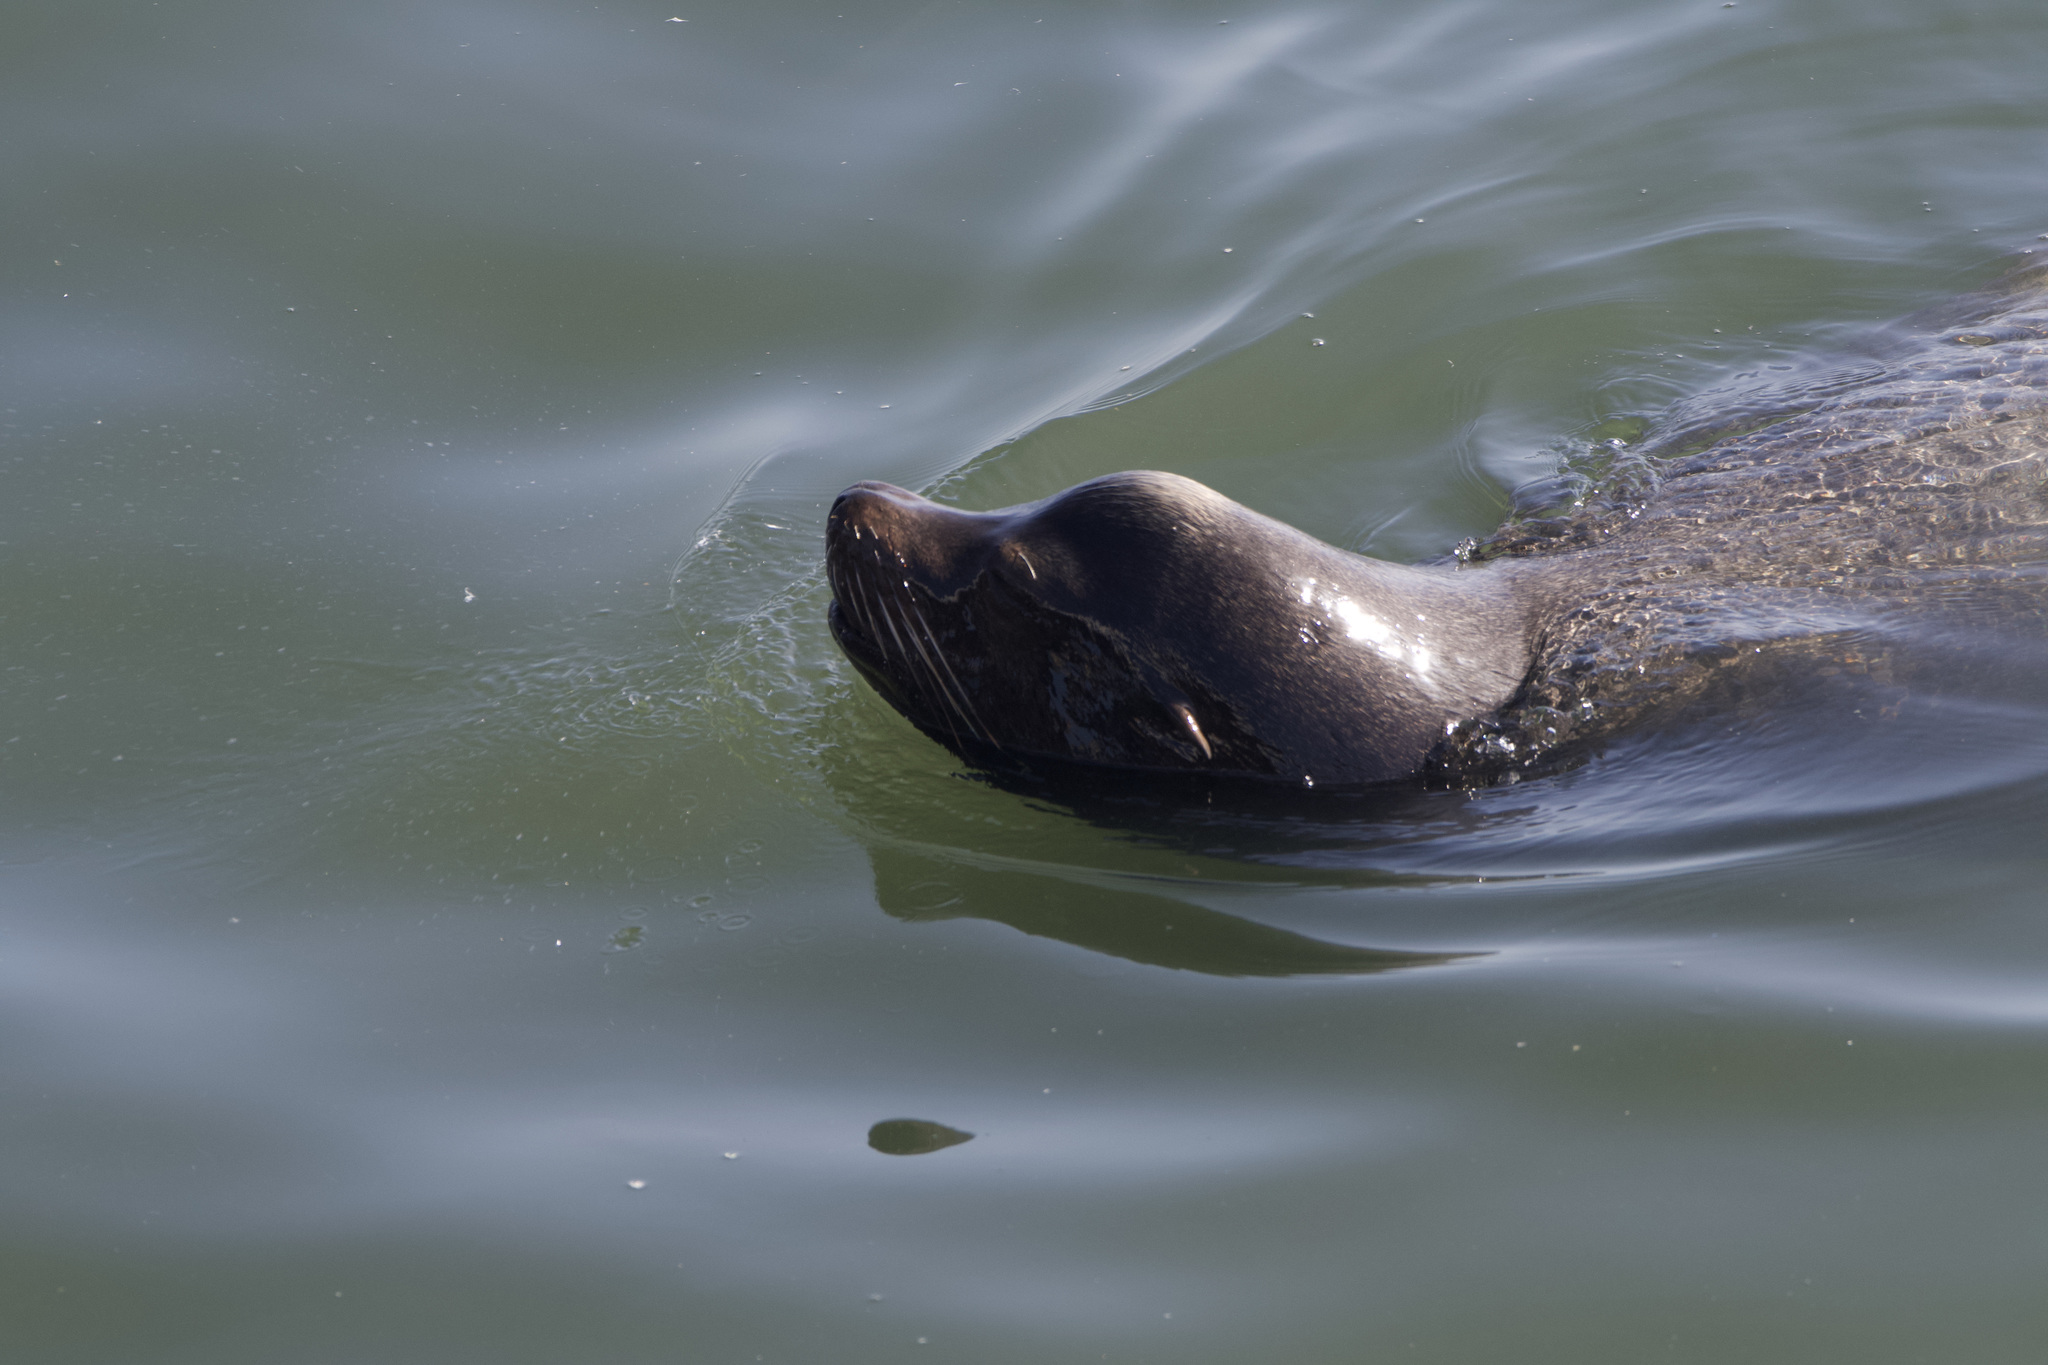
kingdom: Animalia
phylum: Chordata
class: Mammalia
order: Carnivora
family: Otariidae
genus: Zalophus
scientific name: Zalophus californianus
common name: California sea lion
